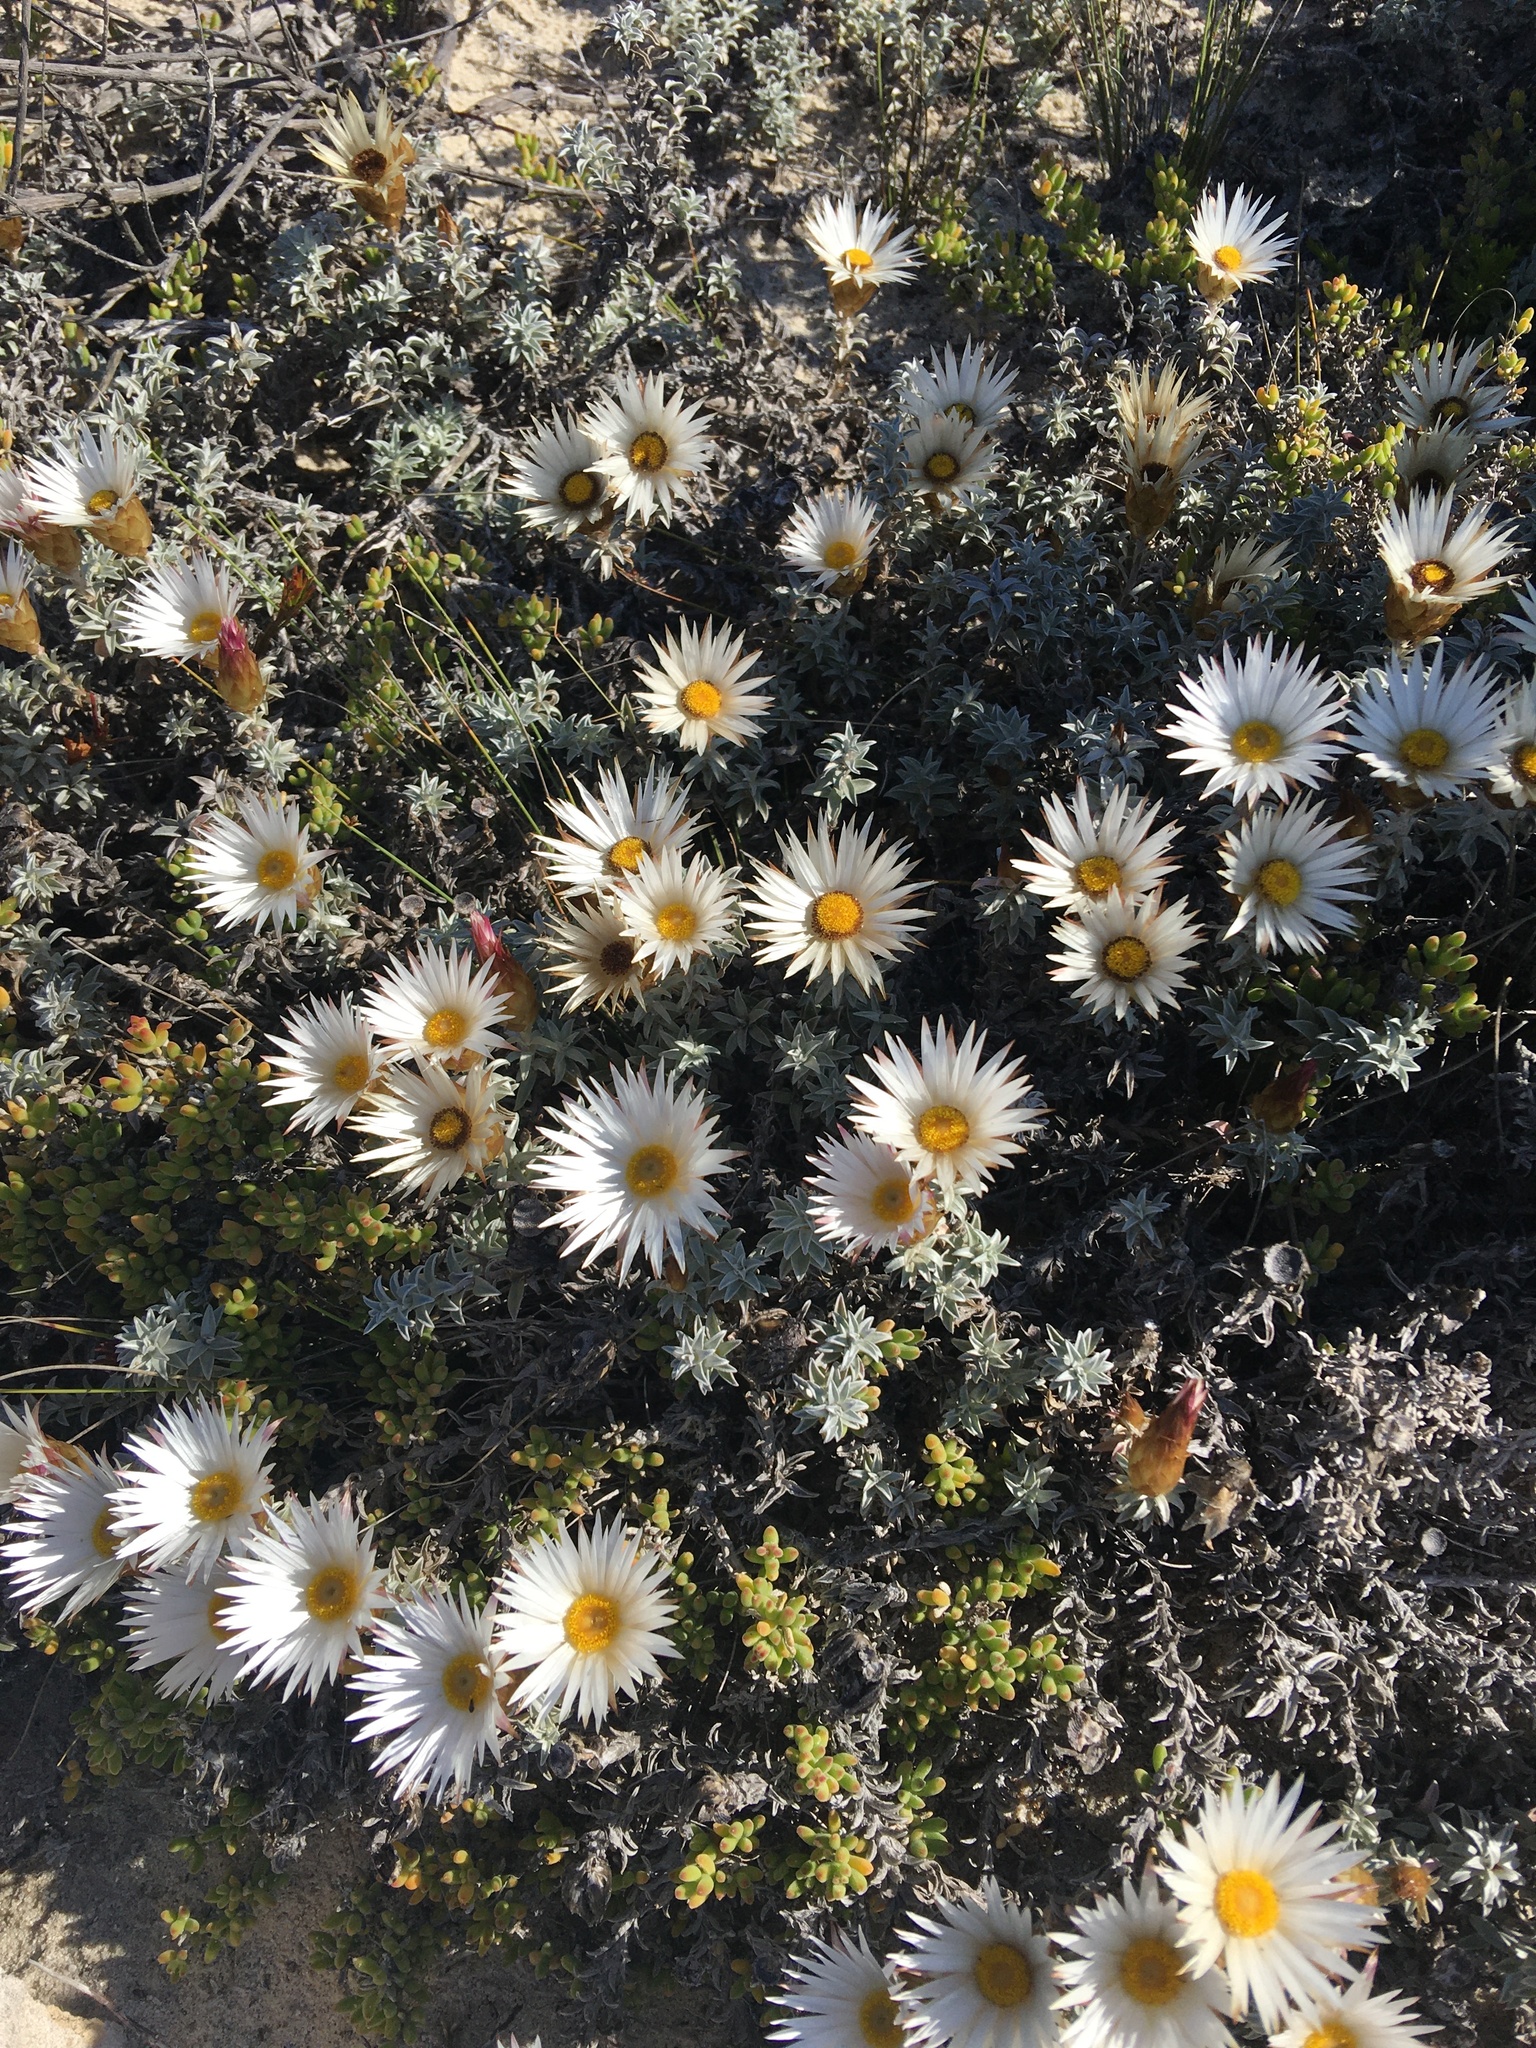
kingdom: Plantae
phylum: Tracheophyta
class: Magnoliopsida
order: Asterales
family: Asteraceae
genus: Helichrysum
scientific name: Helichrysum retortum
